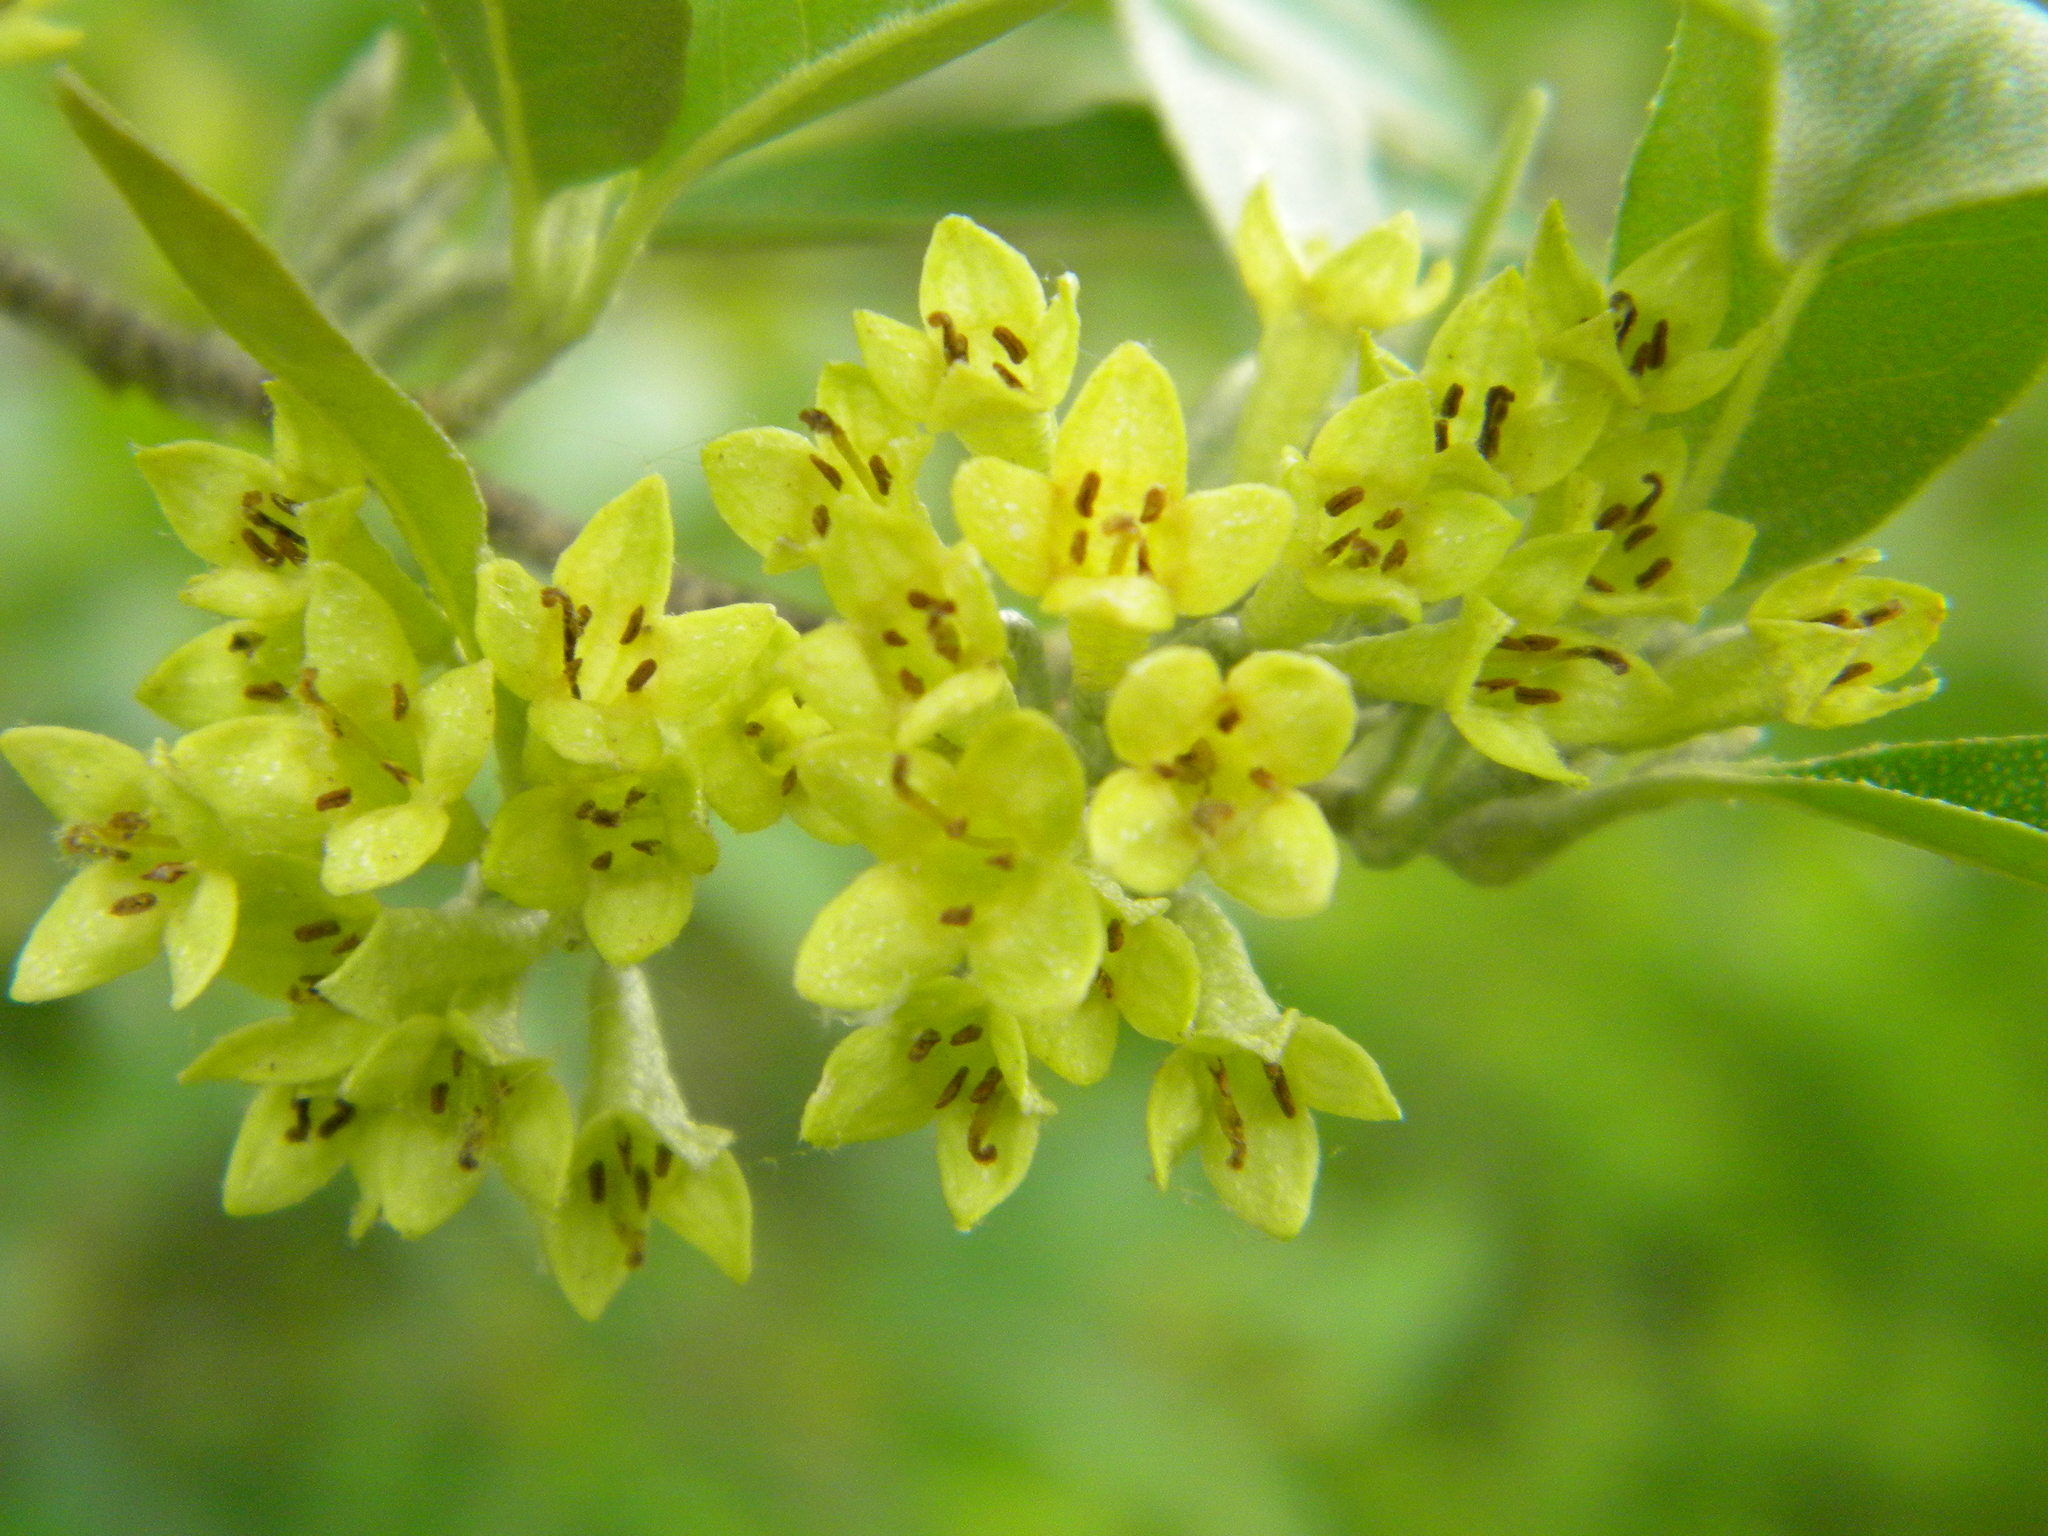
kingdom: Plantae
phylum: Tracheophyta
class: Magnoliopsida
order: Rosales
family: Elaeagnaceae
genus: Elaeagnus
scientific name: Elaeagnus umbellata
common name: Autumn olive
